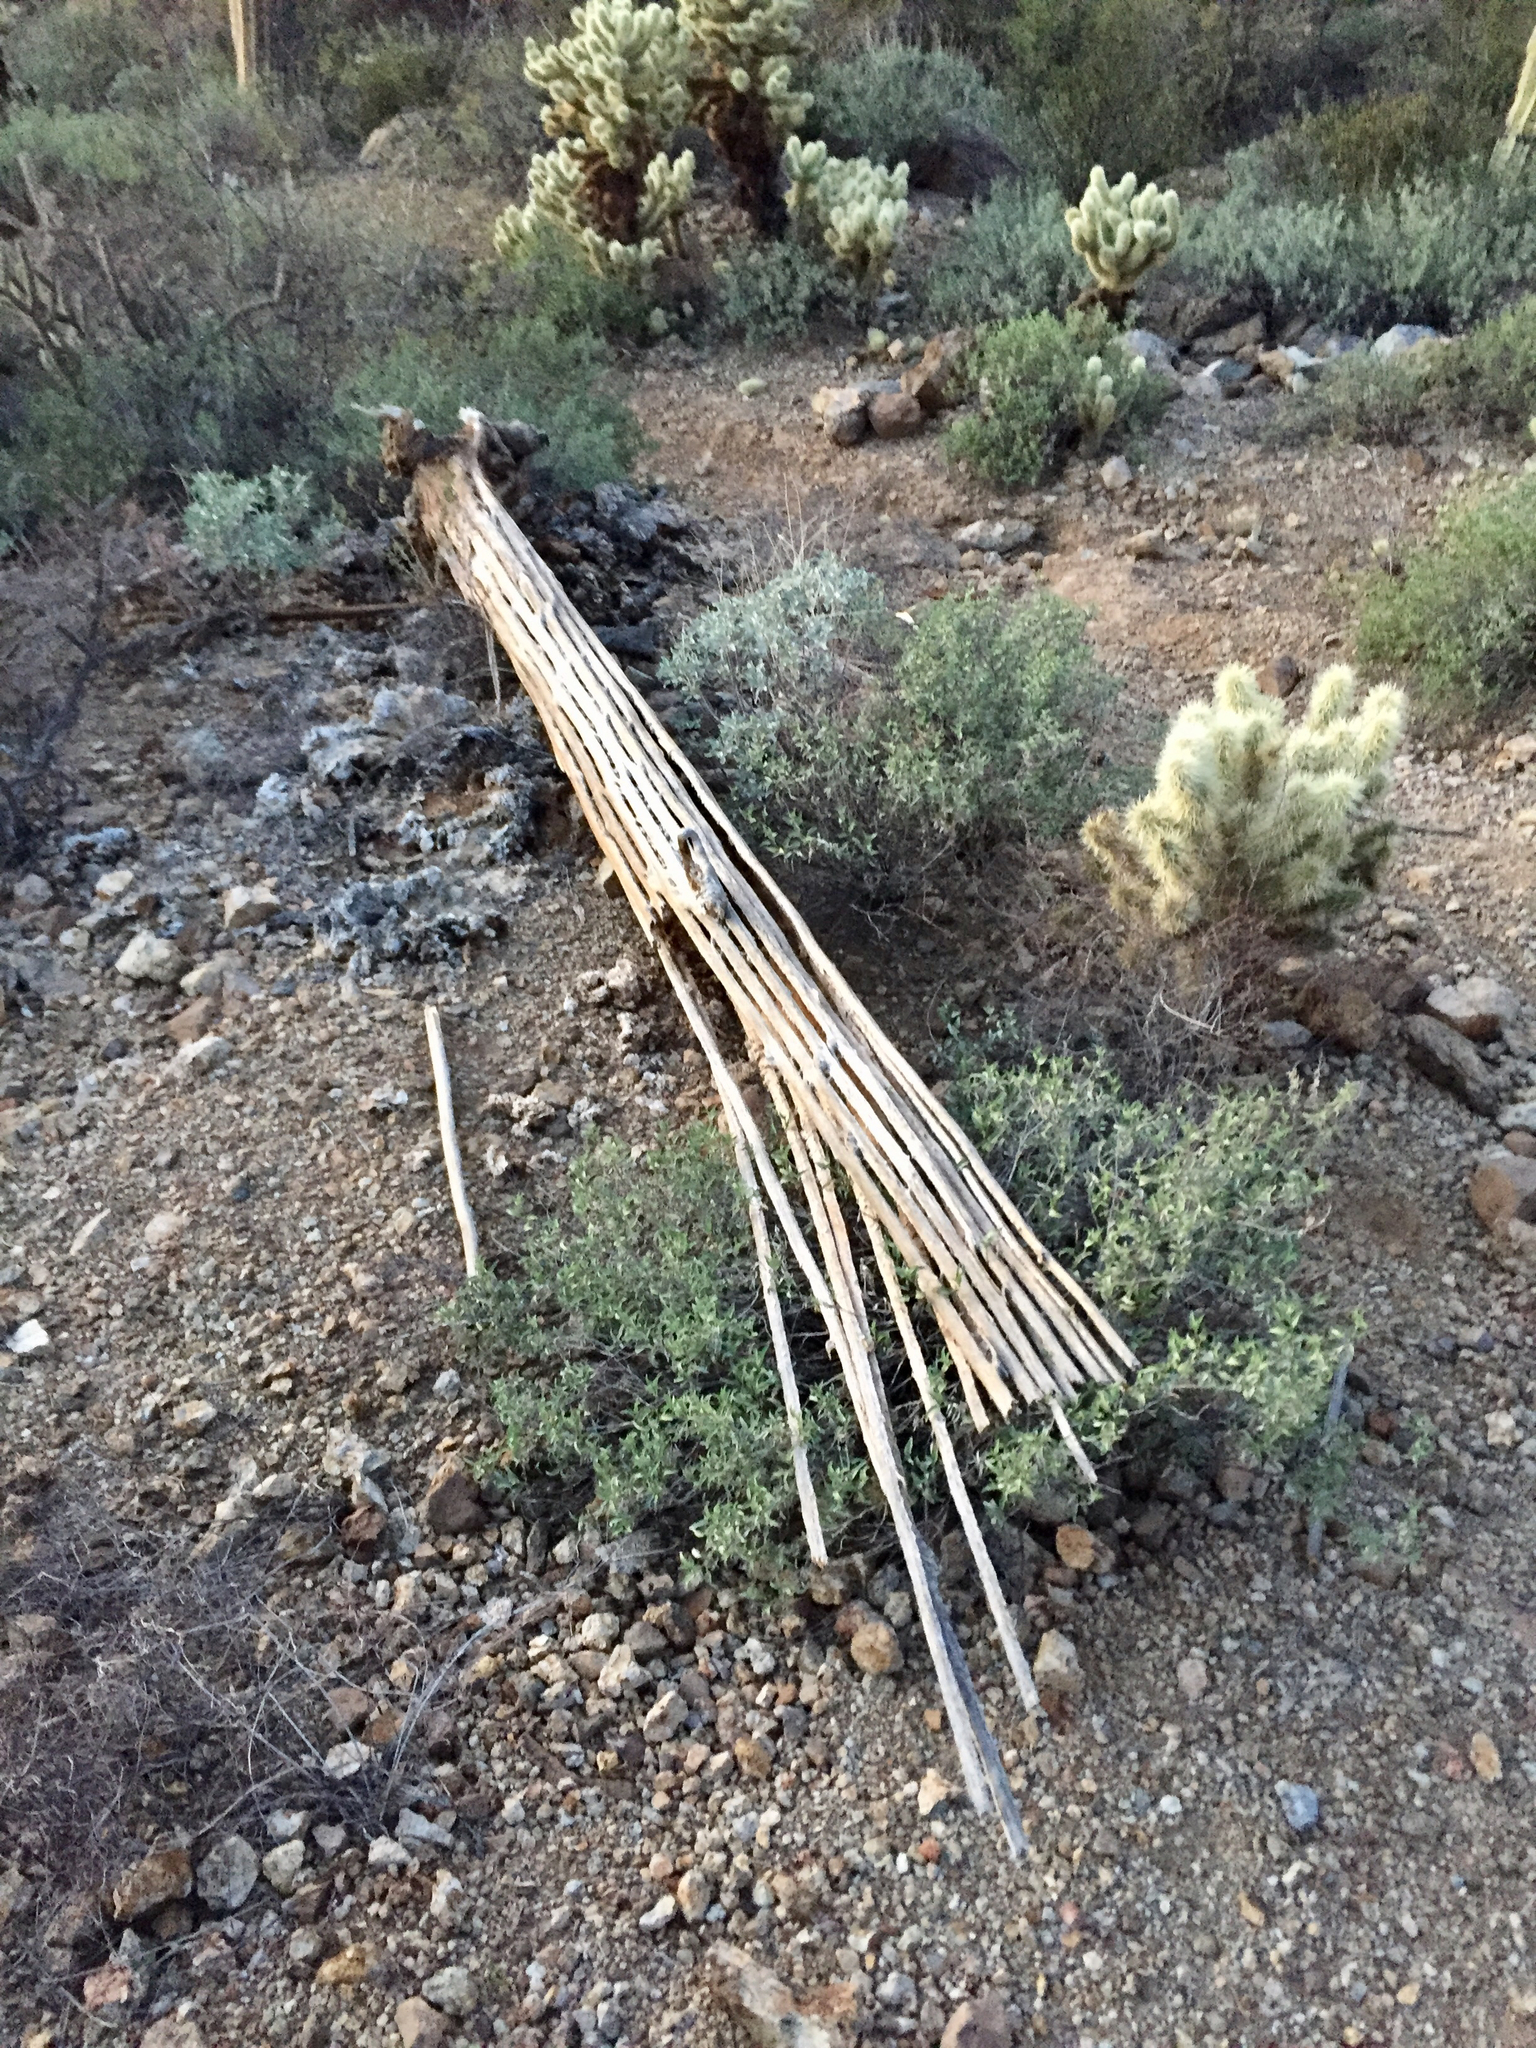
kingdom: Plantae
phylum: Tracheophyta
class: Magnoliopsida
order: Caryophyllales
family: Cactaceae
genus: Carnegiea
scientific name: Carnegiea gigantea
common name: Saguaro
